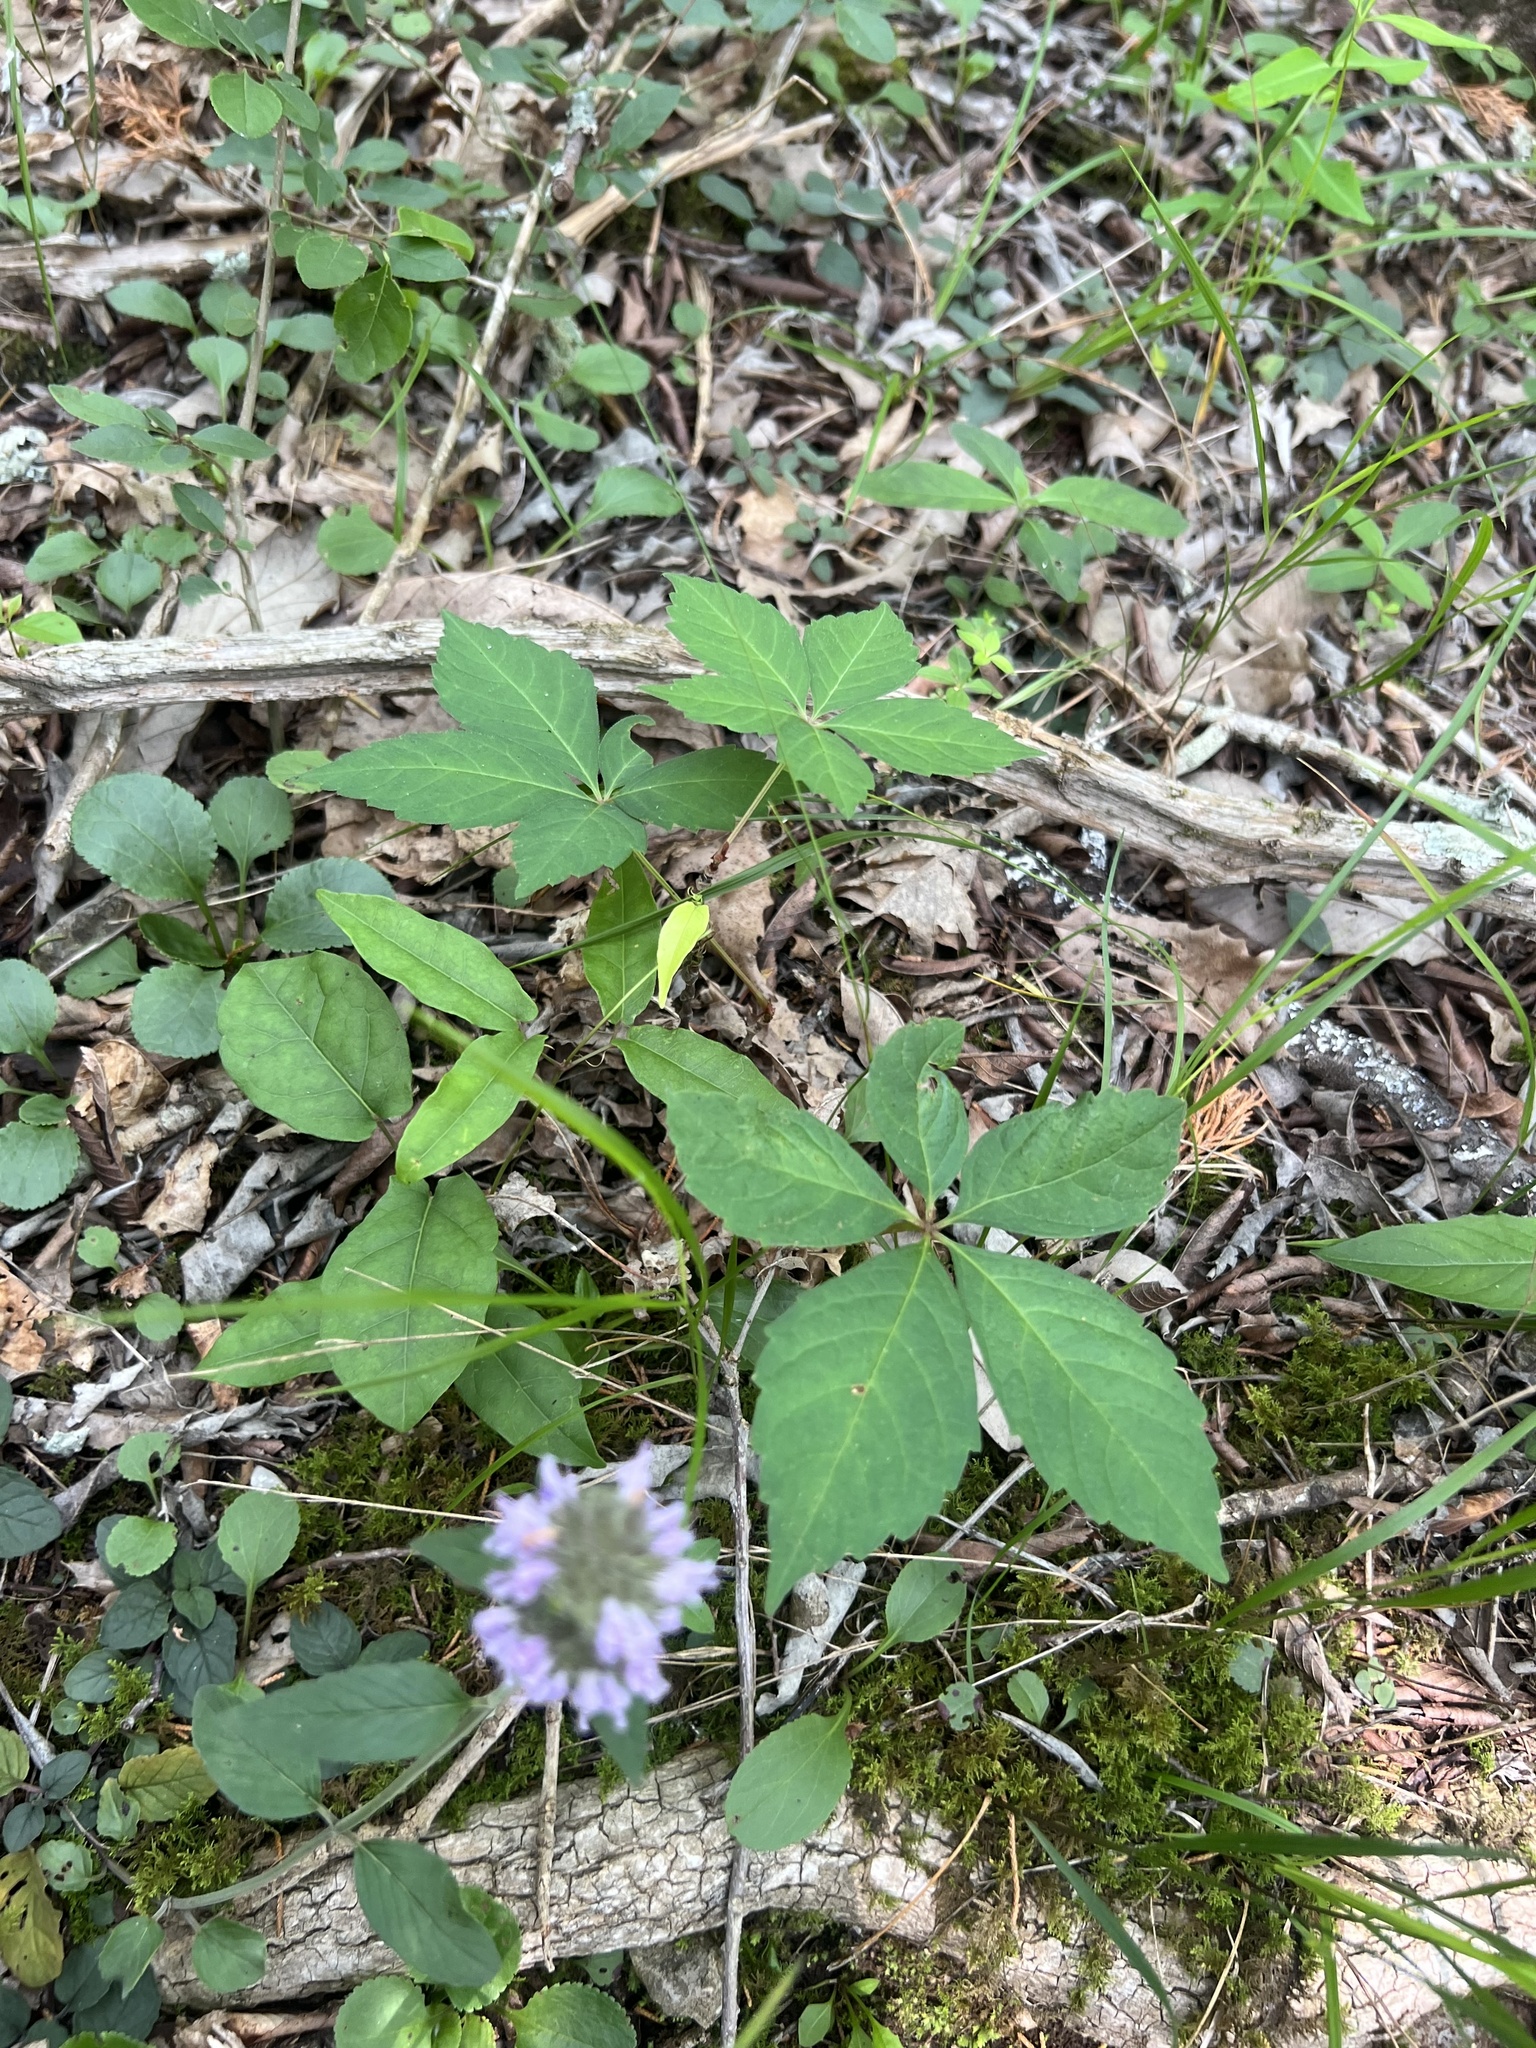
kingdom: Plantae
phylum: Tracheophyta
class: Magnoliopsida
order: Vitales
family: Vitaceae
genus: Parthenocissus
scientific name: Parthenocissus quinquefolia
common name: Virginia-creeper
